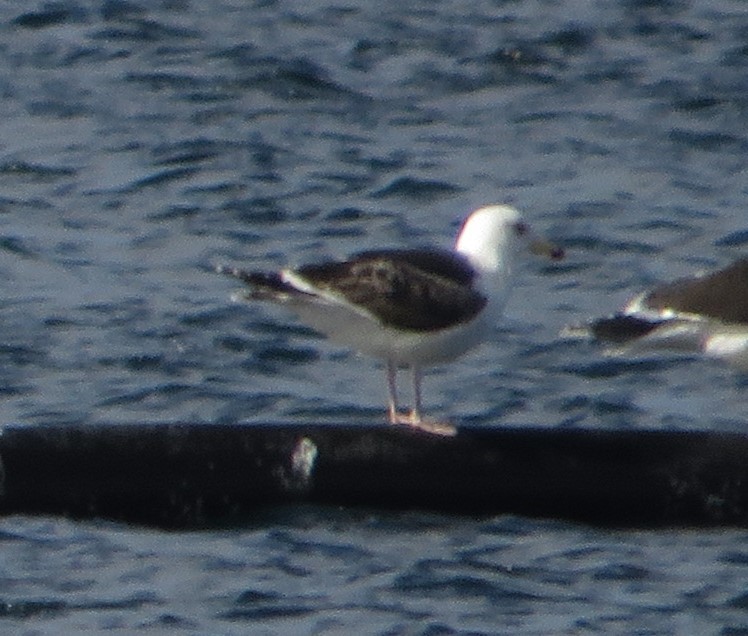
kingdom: Animalia
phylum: Chordata
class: Aves
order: Charadriiformes
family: Laridae
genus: Larus
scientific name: Larus marinus
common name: Great black-backed gull
